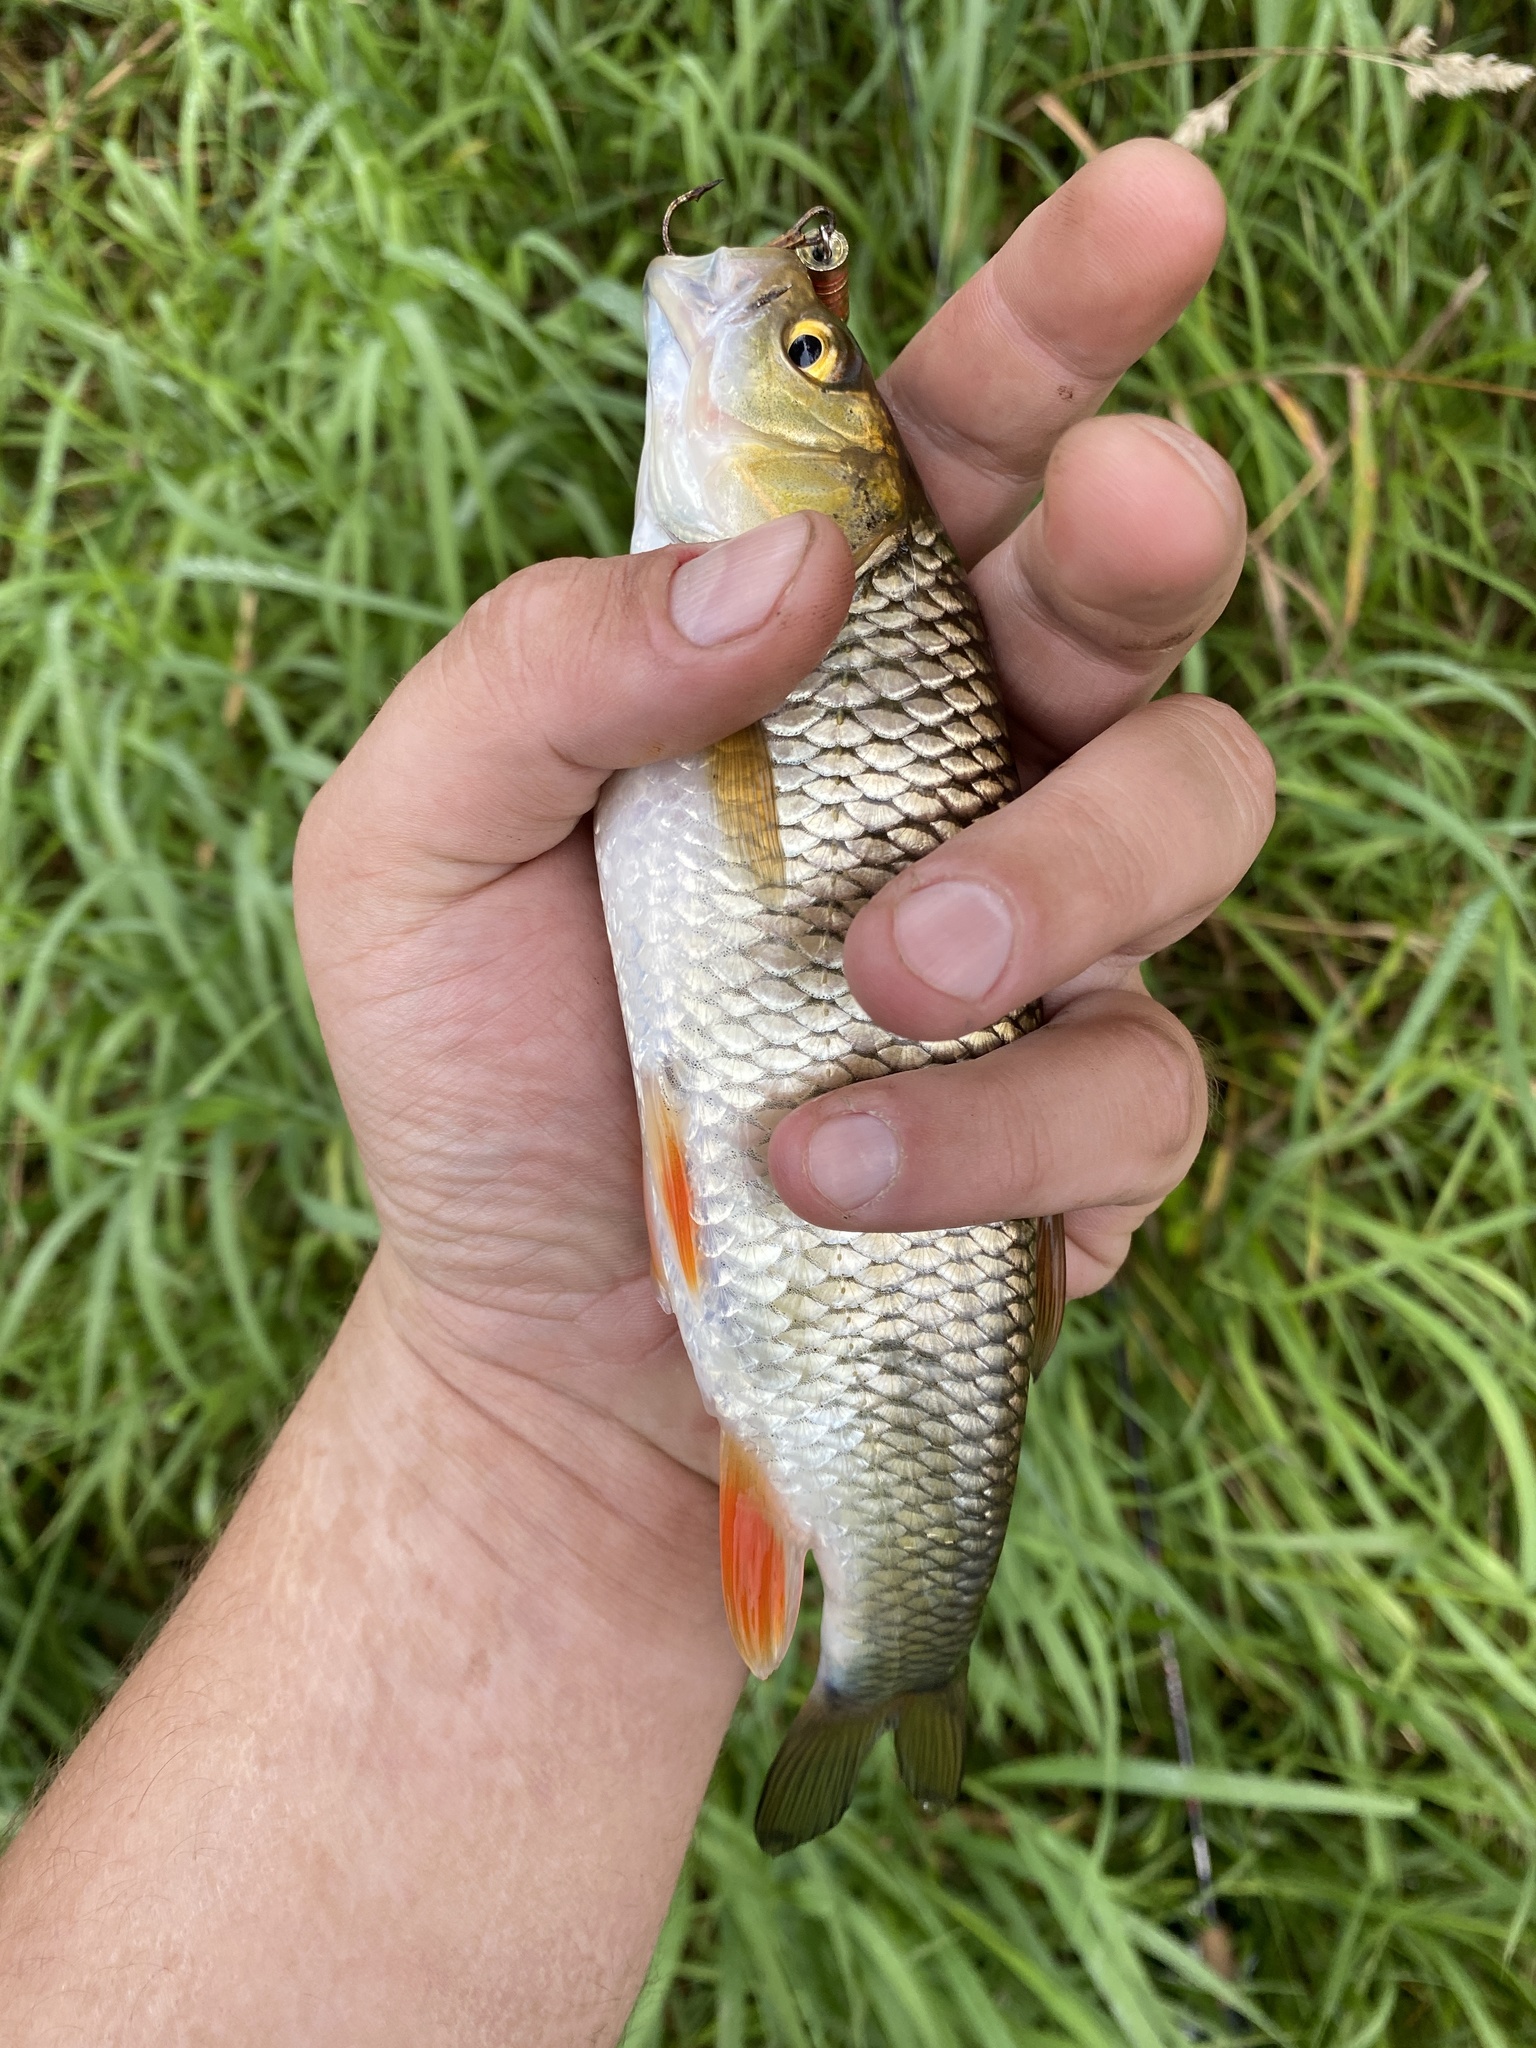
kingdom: Animalia
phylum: Chordata
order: Cypriniformes
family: Cyprinidae
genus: Squalius
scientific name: Squalius cephalus
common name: Chub
